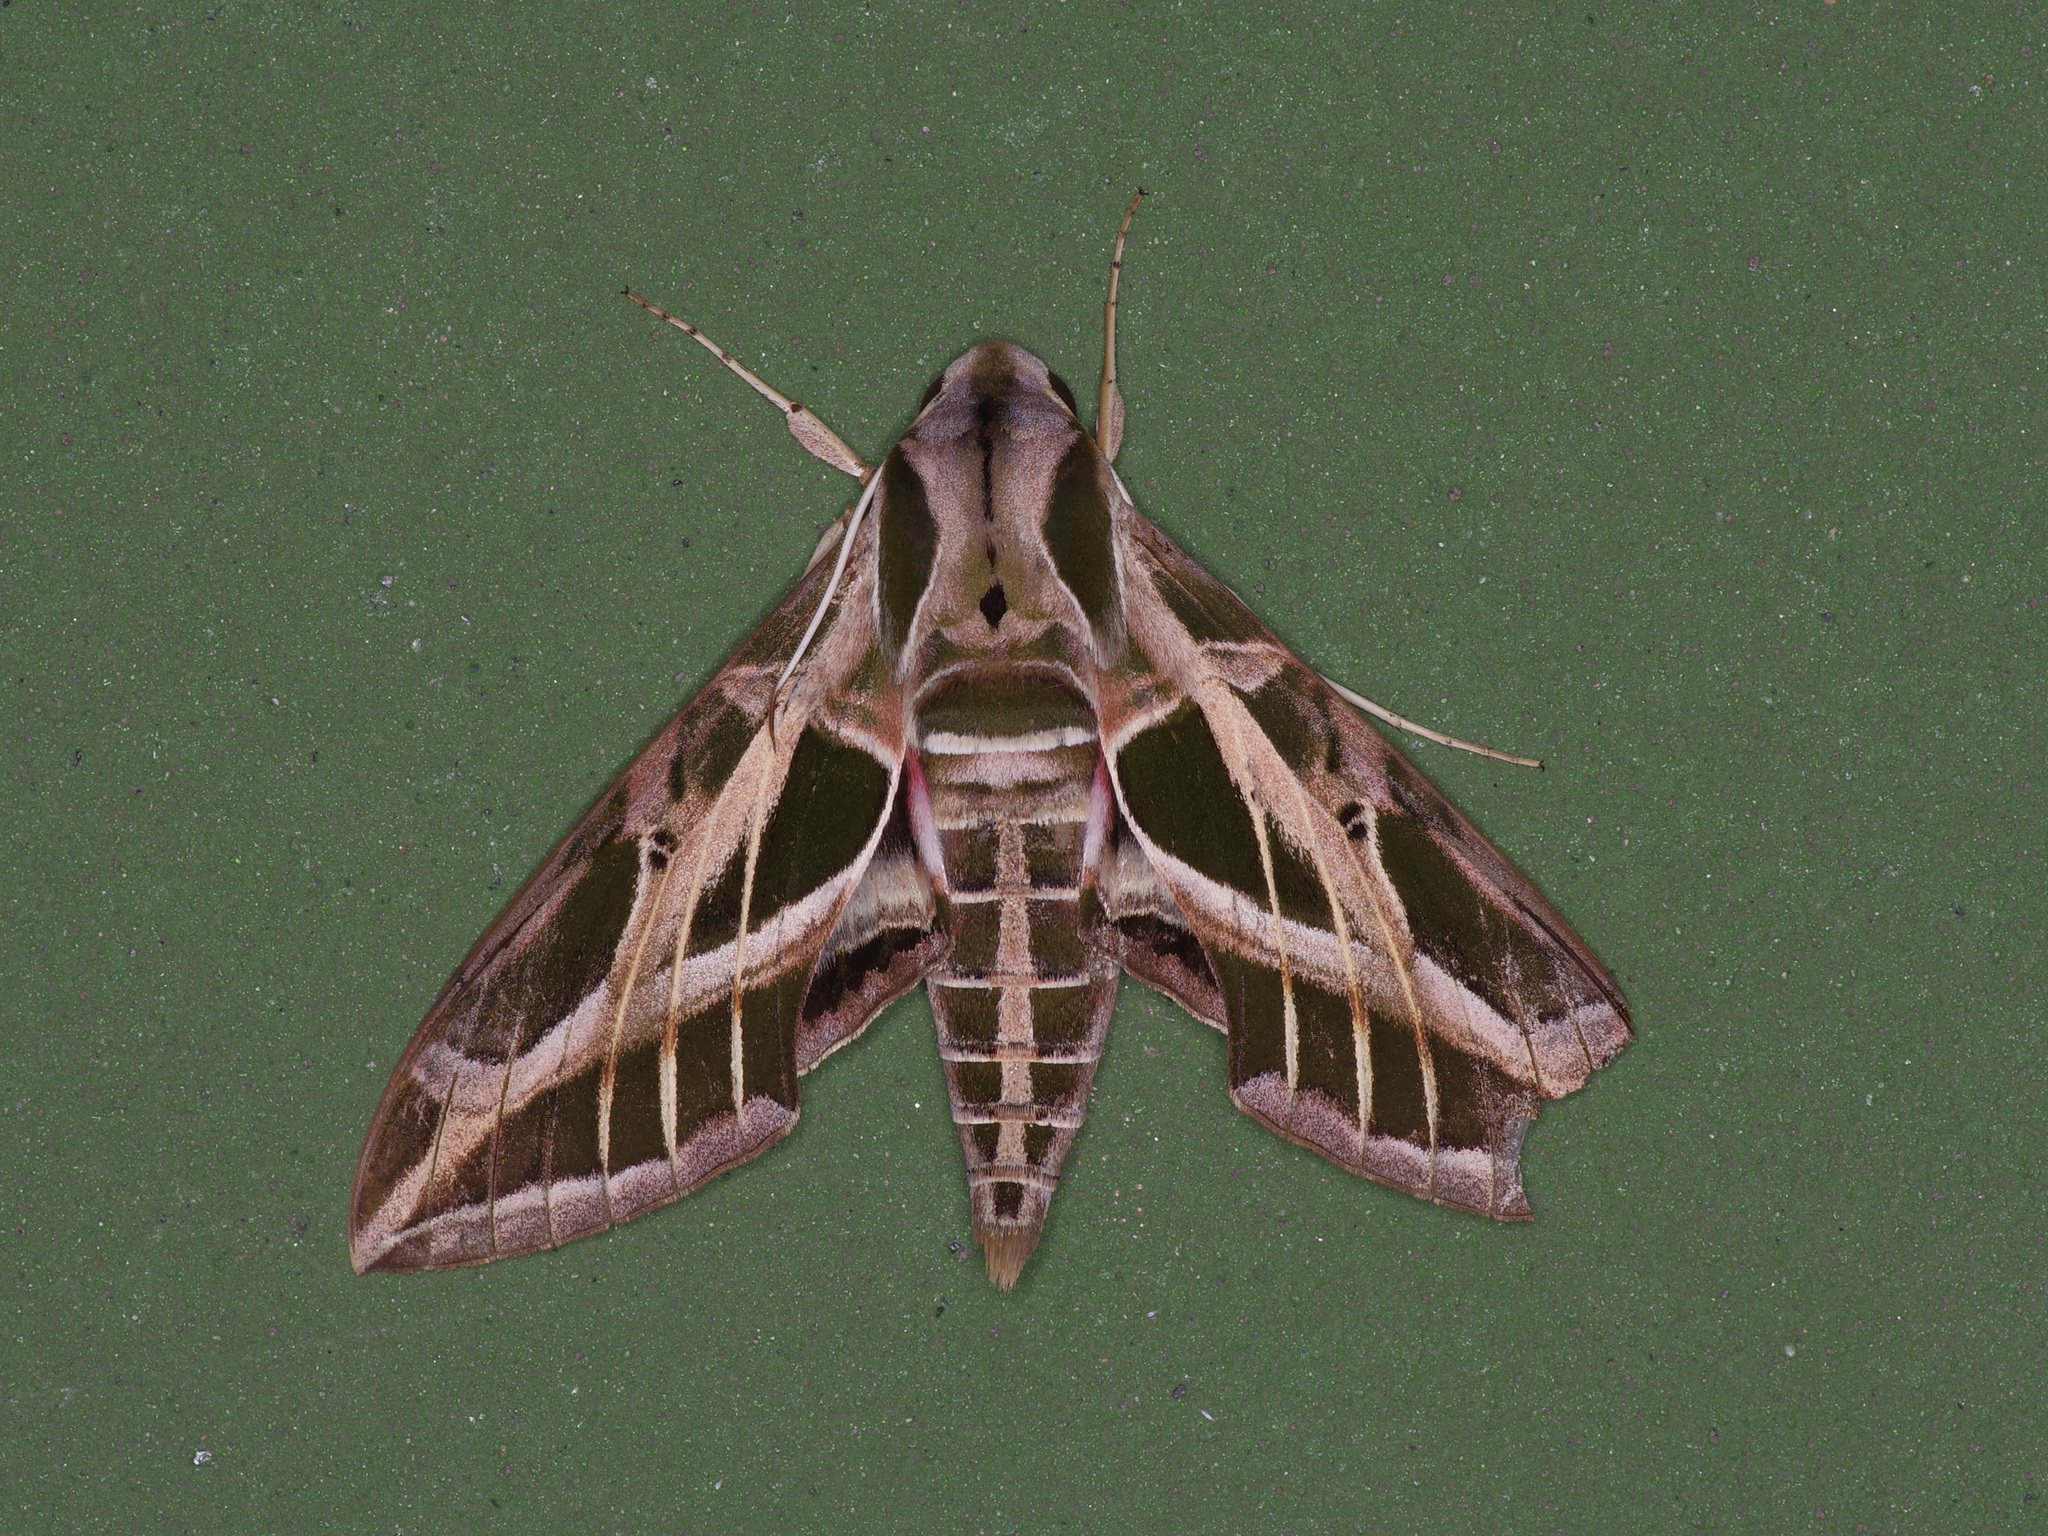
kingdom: Animalia
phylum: Arthropoda
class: Insecta
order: Lepidoptera
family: Sphingidae
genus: Eumorpha
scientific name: Eumorpha vitis
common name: Vine sphinx
